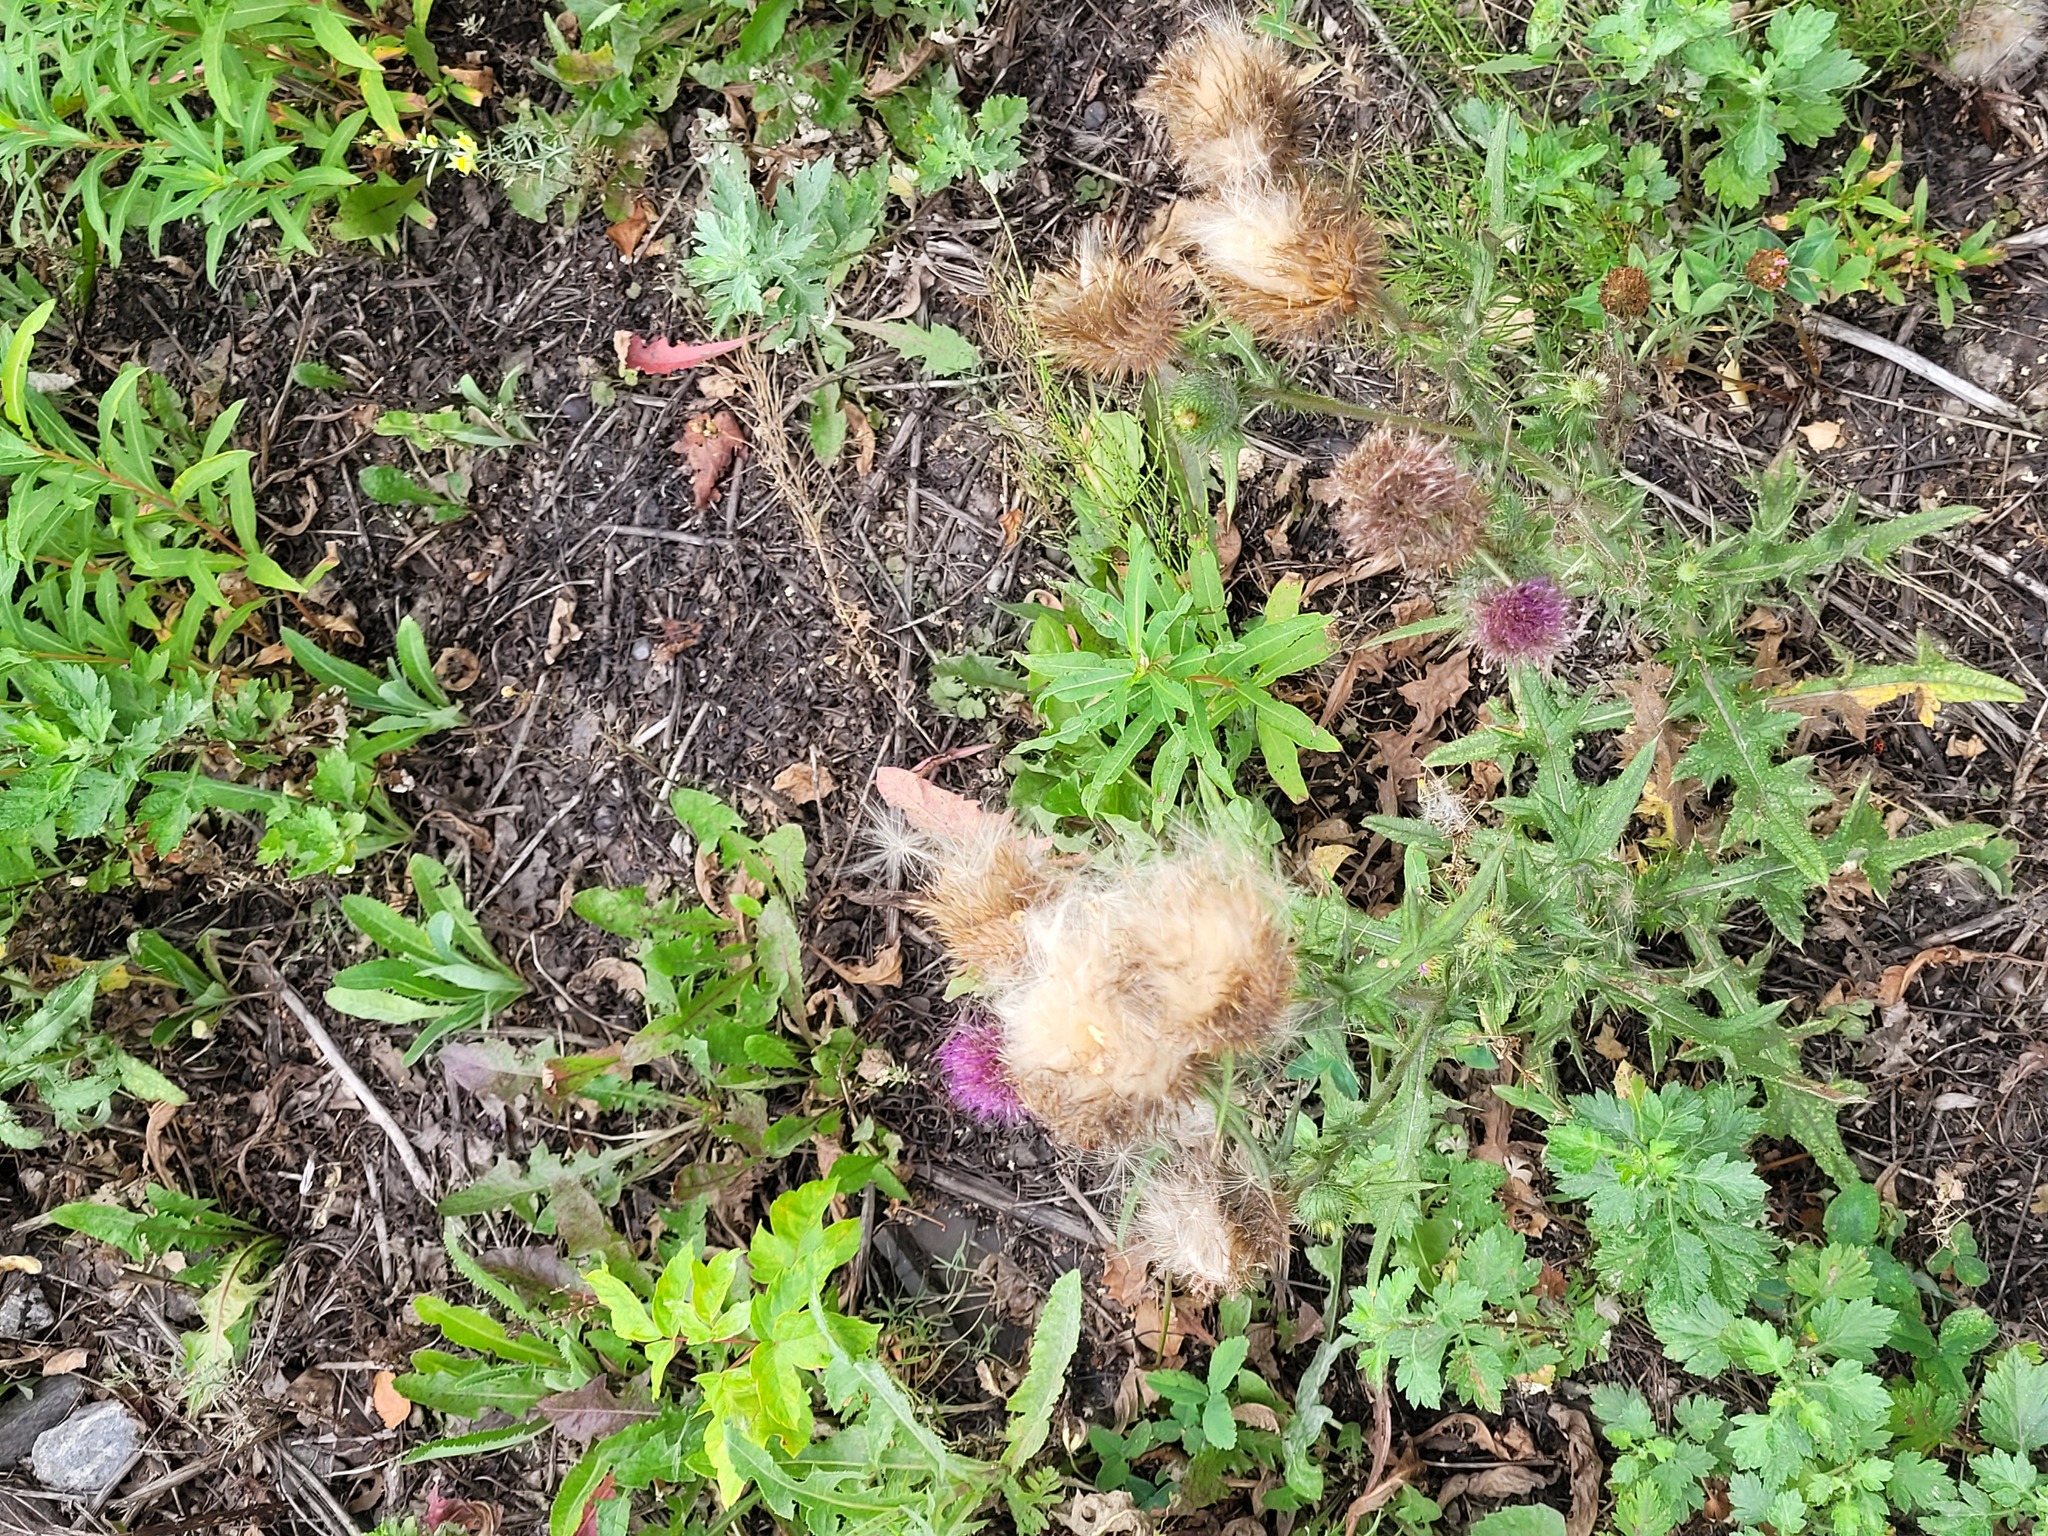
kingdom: Plantae
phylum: Tracheophyta
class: Magnoliopsida
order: Asterales
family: Asteraceae
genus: Cirsium
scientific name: Cirsium vulgare
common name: Bull thistle
